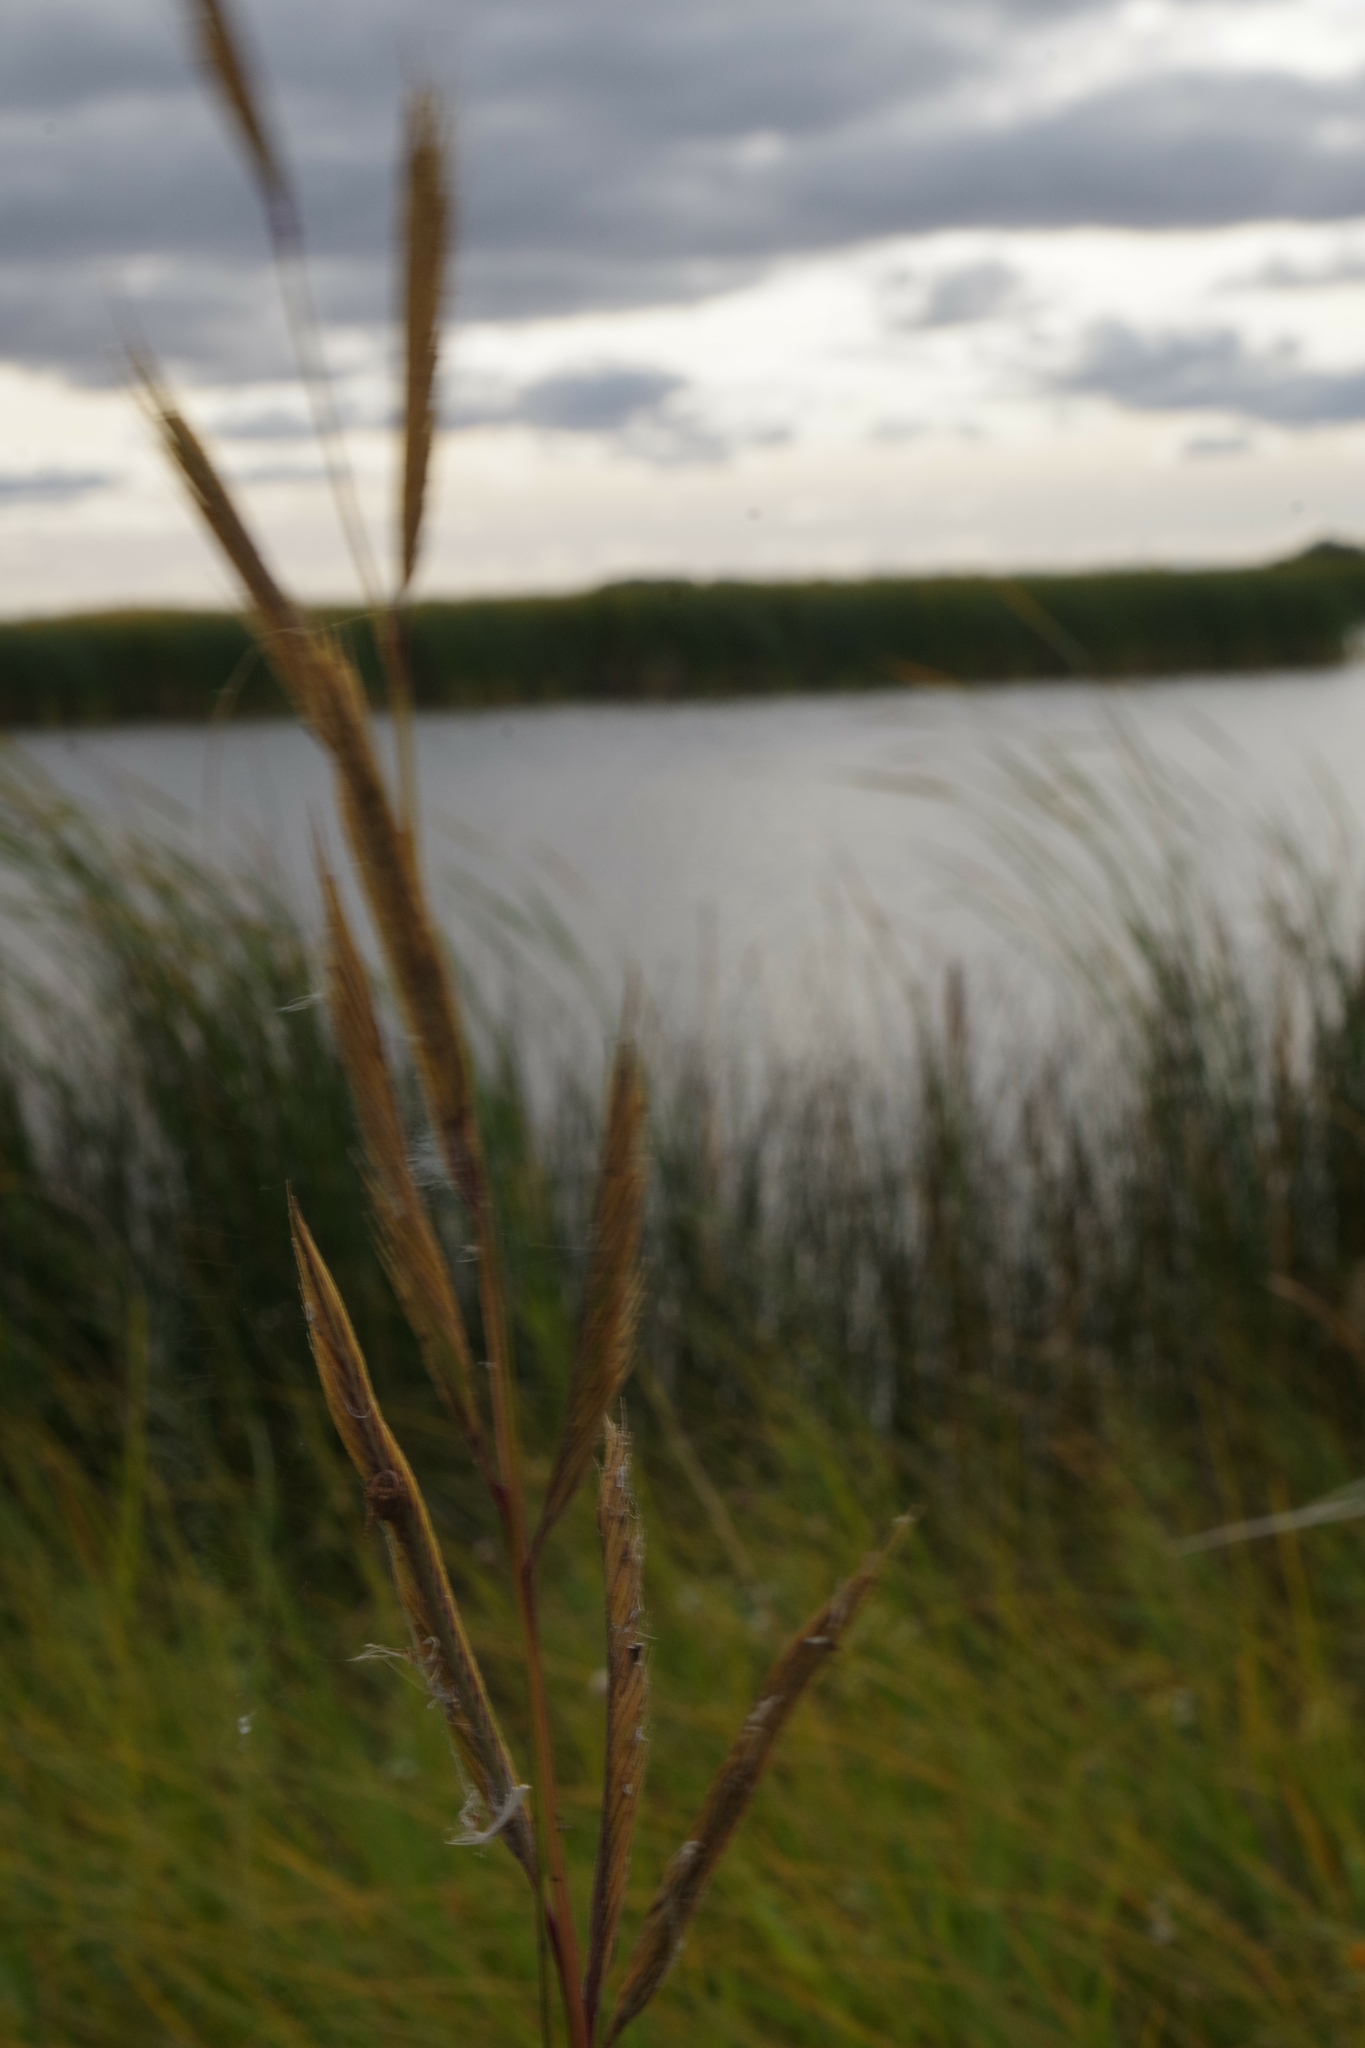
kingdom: Plantae
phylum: Tracheophyta
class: Liliopsida
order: Poales
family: Poaceae
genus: Sporobolus
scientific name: Sporobolus michauxianus
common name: Freshwater cordgrass
